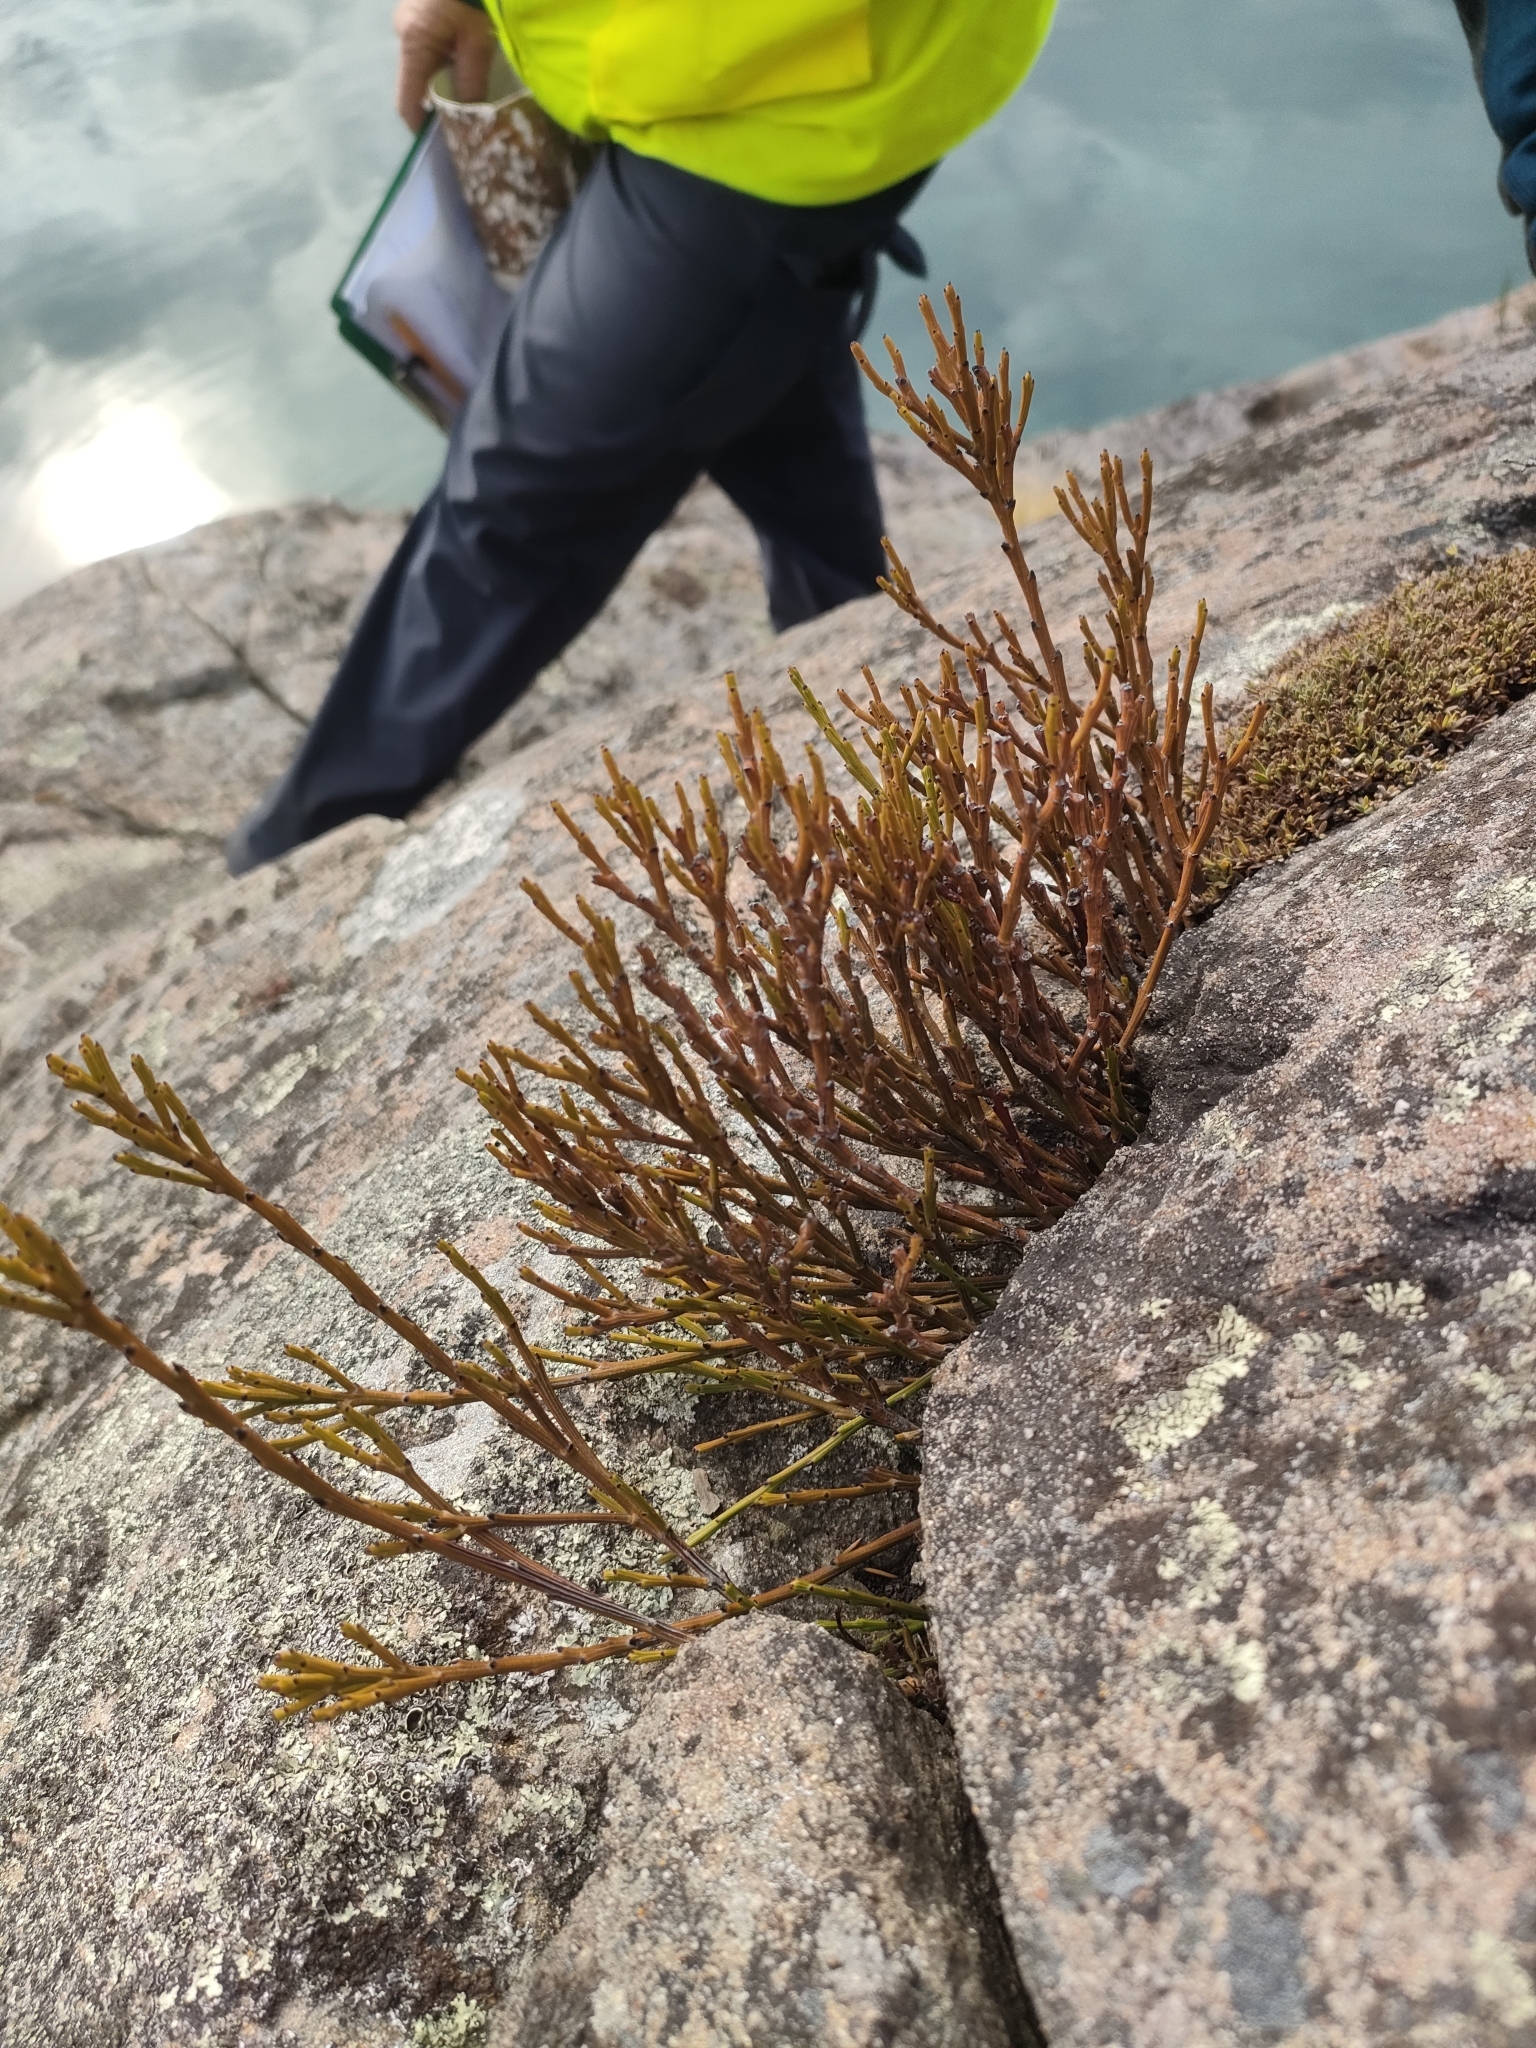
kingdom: Plantae
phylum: Tracheophyta
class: Magnoliopsida
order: Santalales
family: Santalaceae
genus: Exocarpos
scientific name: Exocarpos bidwillii
